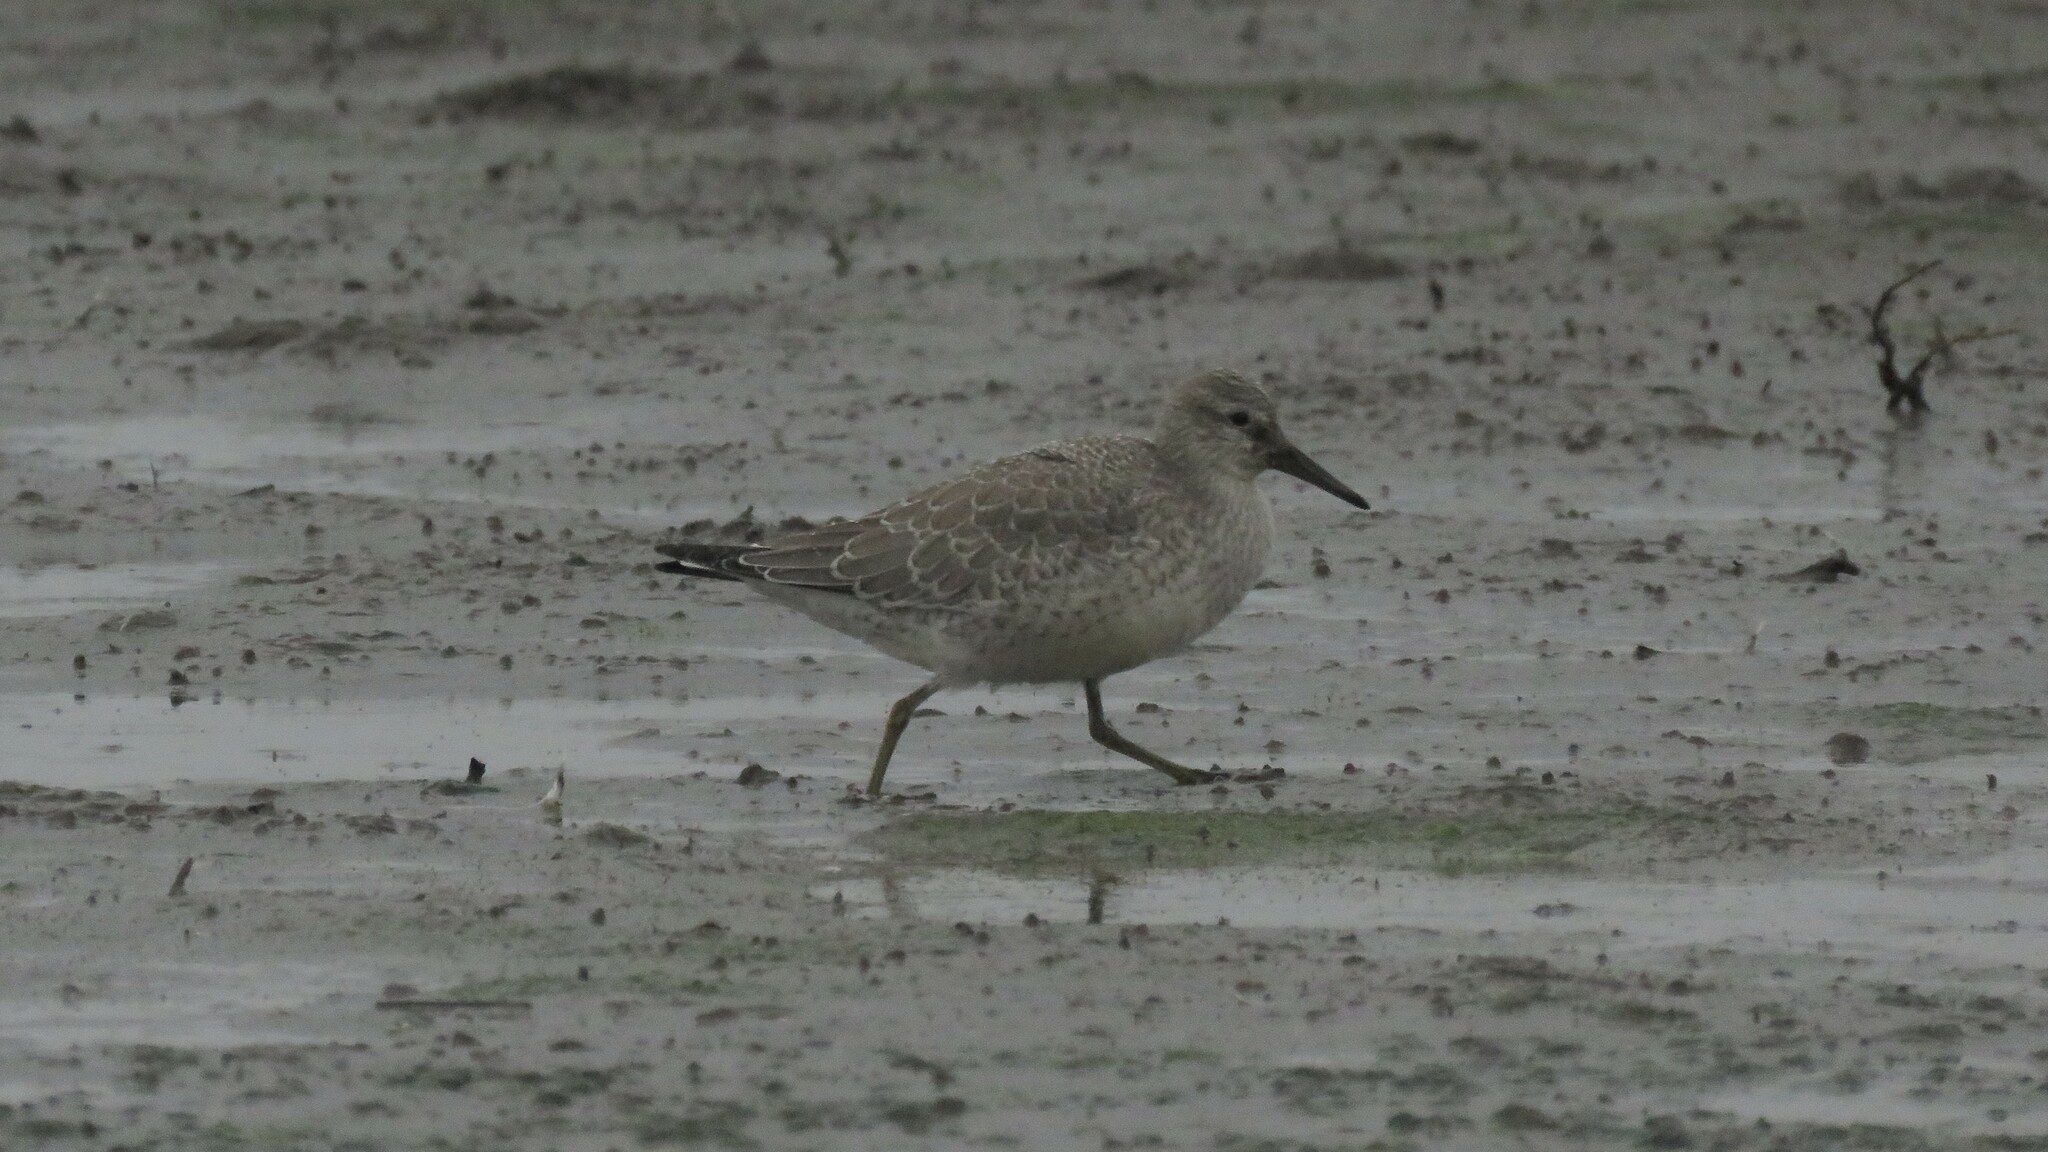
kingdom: Animalia
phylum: Chordata
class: Aves
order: Charadriiformes
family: Scolopacidae
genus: Calidris
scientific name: Calidris canutus
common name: Red knot
